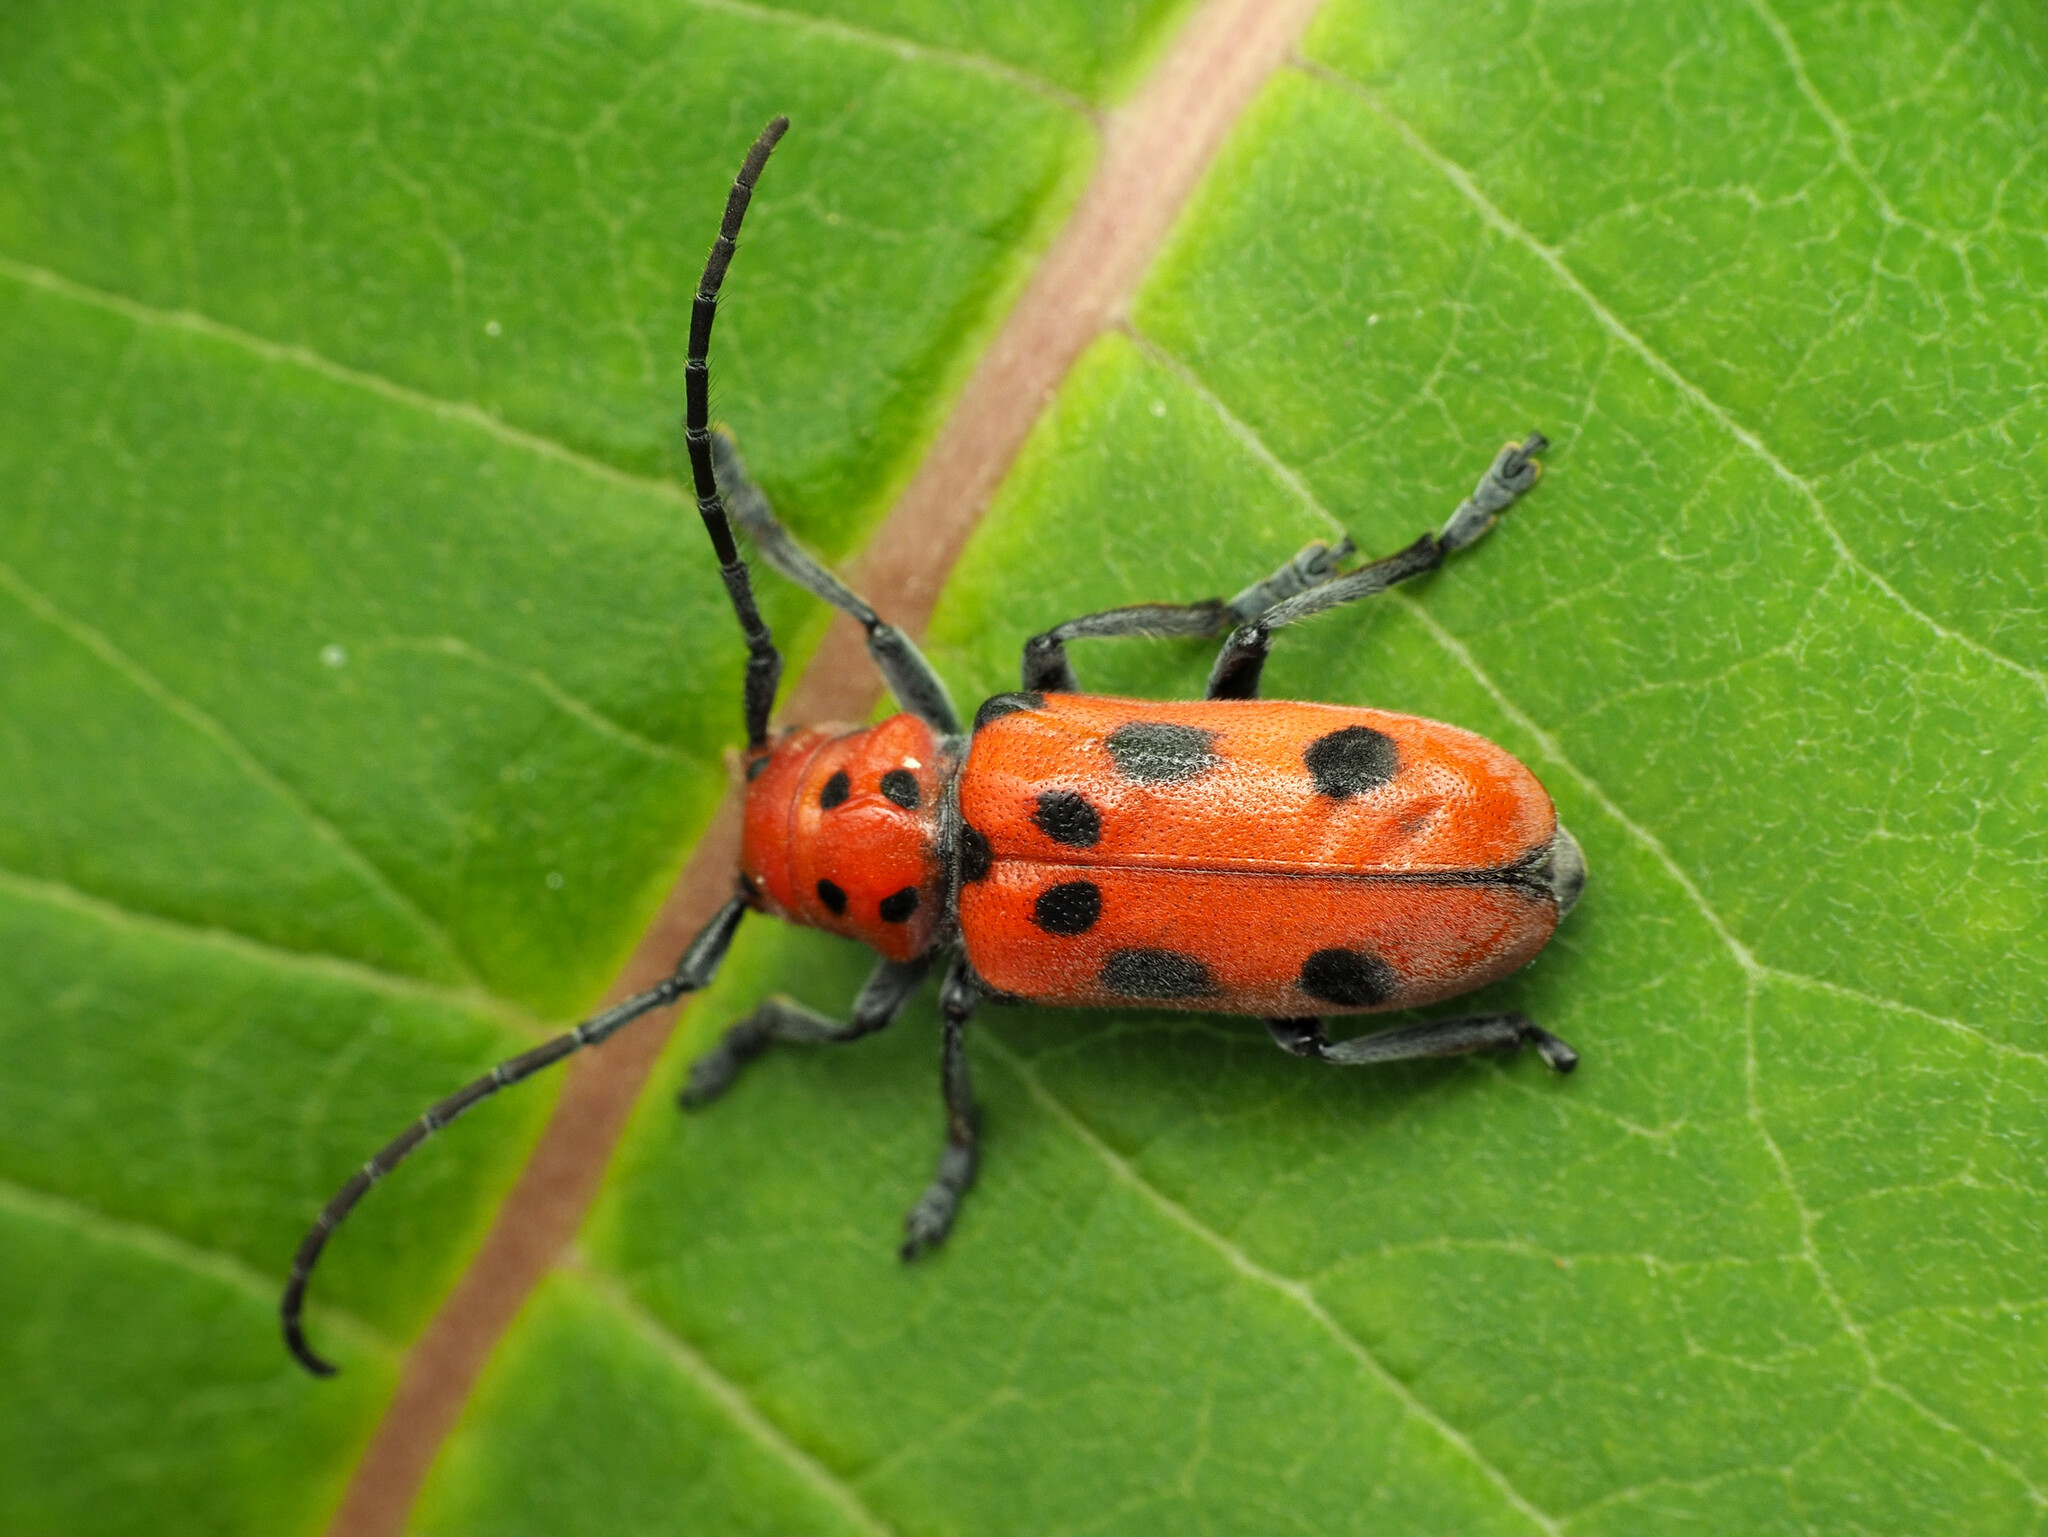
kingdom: Animalia
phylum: Arthropoda
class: Insecta
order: Coleoptera
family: Cerambycidae
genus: Tetraopes
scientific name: Tetraopes tetrophthalmus
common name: Red milkweed beetle
